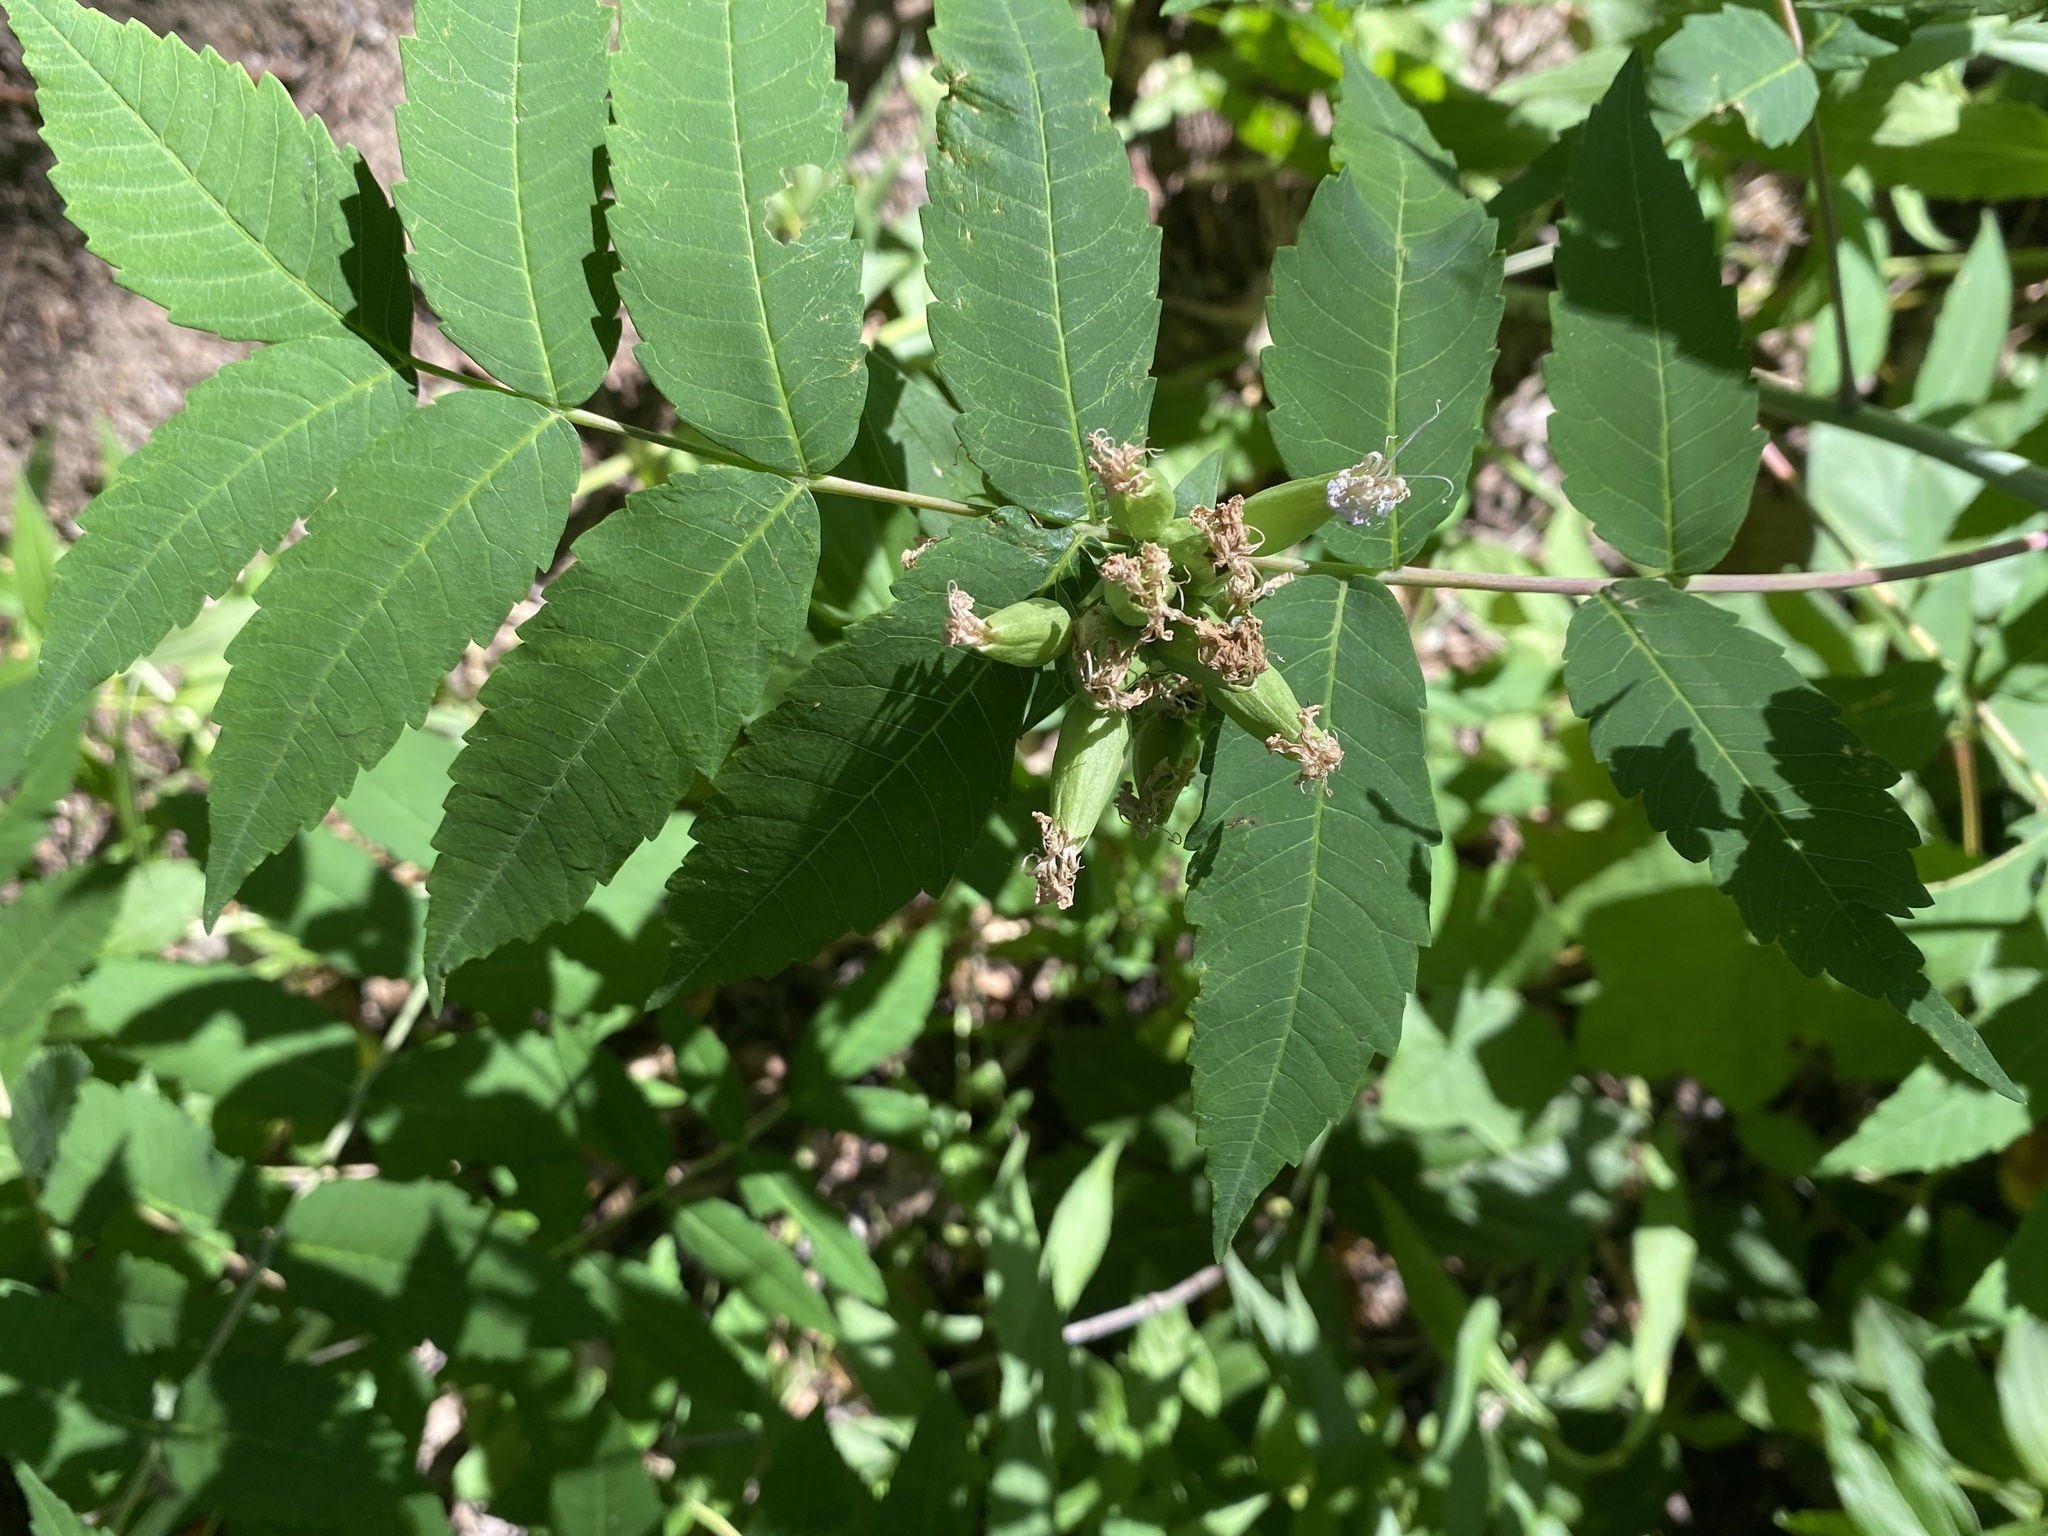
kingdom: Plantae
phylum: Tracheophyta
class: Magnoliopsida
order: Sapindales
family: Anacardiaceae
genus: Rhus
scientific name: Rhus glabra
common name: Scarlet sumac
